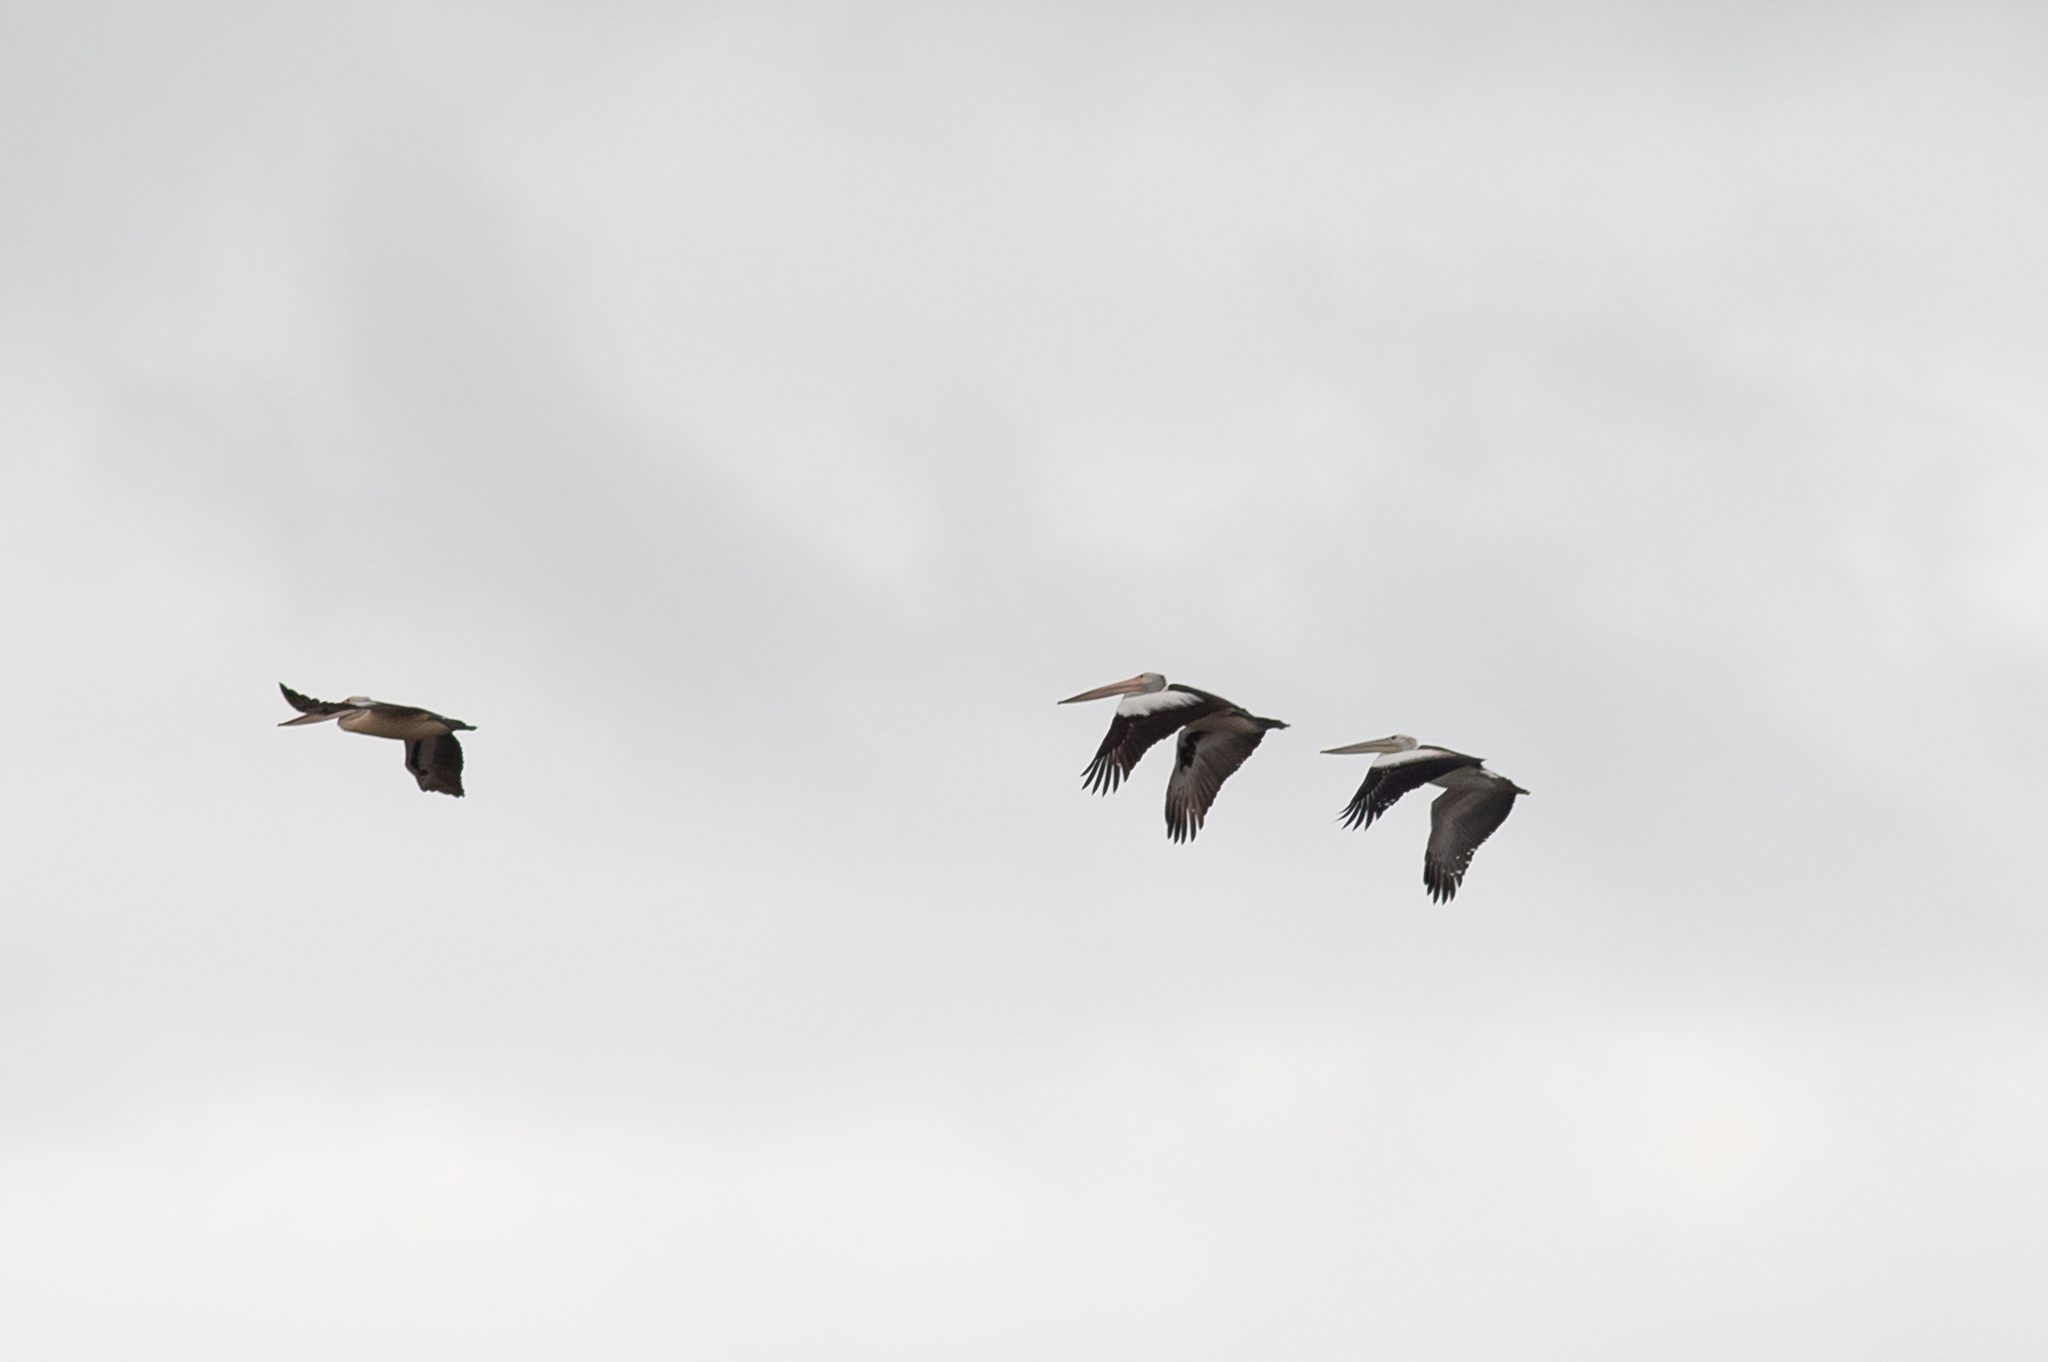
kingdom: Animalia
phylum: Chordata
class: Aves
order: Pelecaniformes
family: Pelecanidae
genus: Pelecanus
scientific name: Pelecanus conspicillatus
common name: Australian pelican
